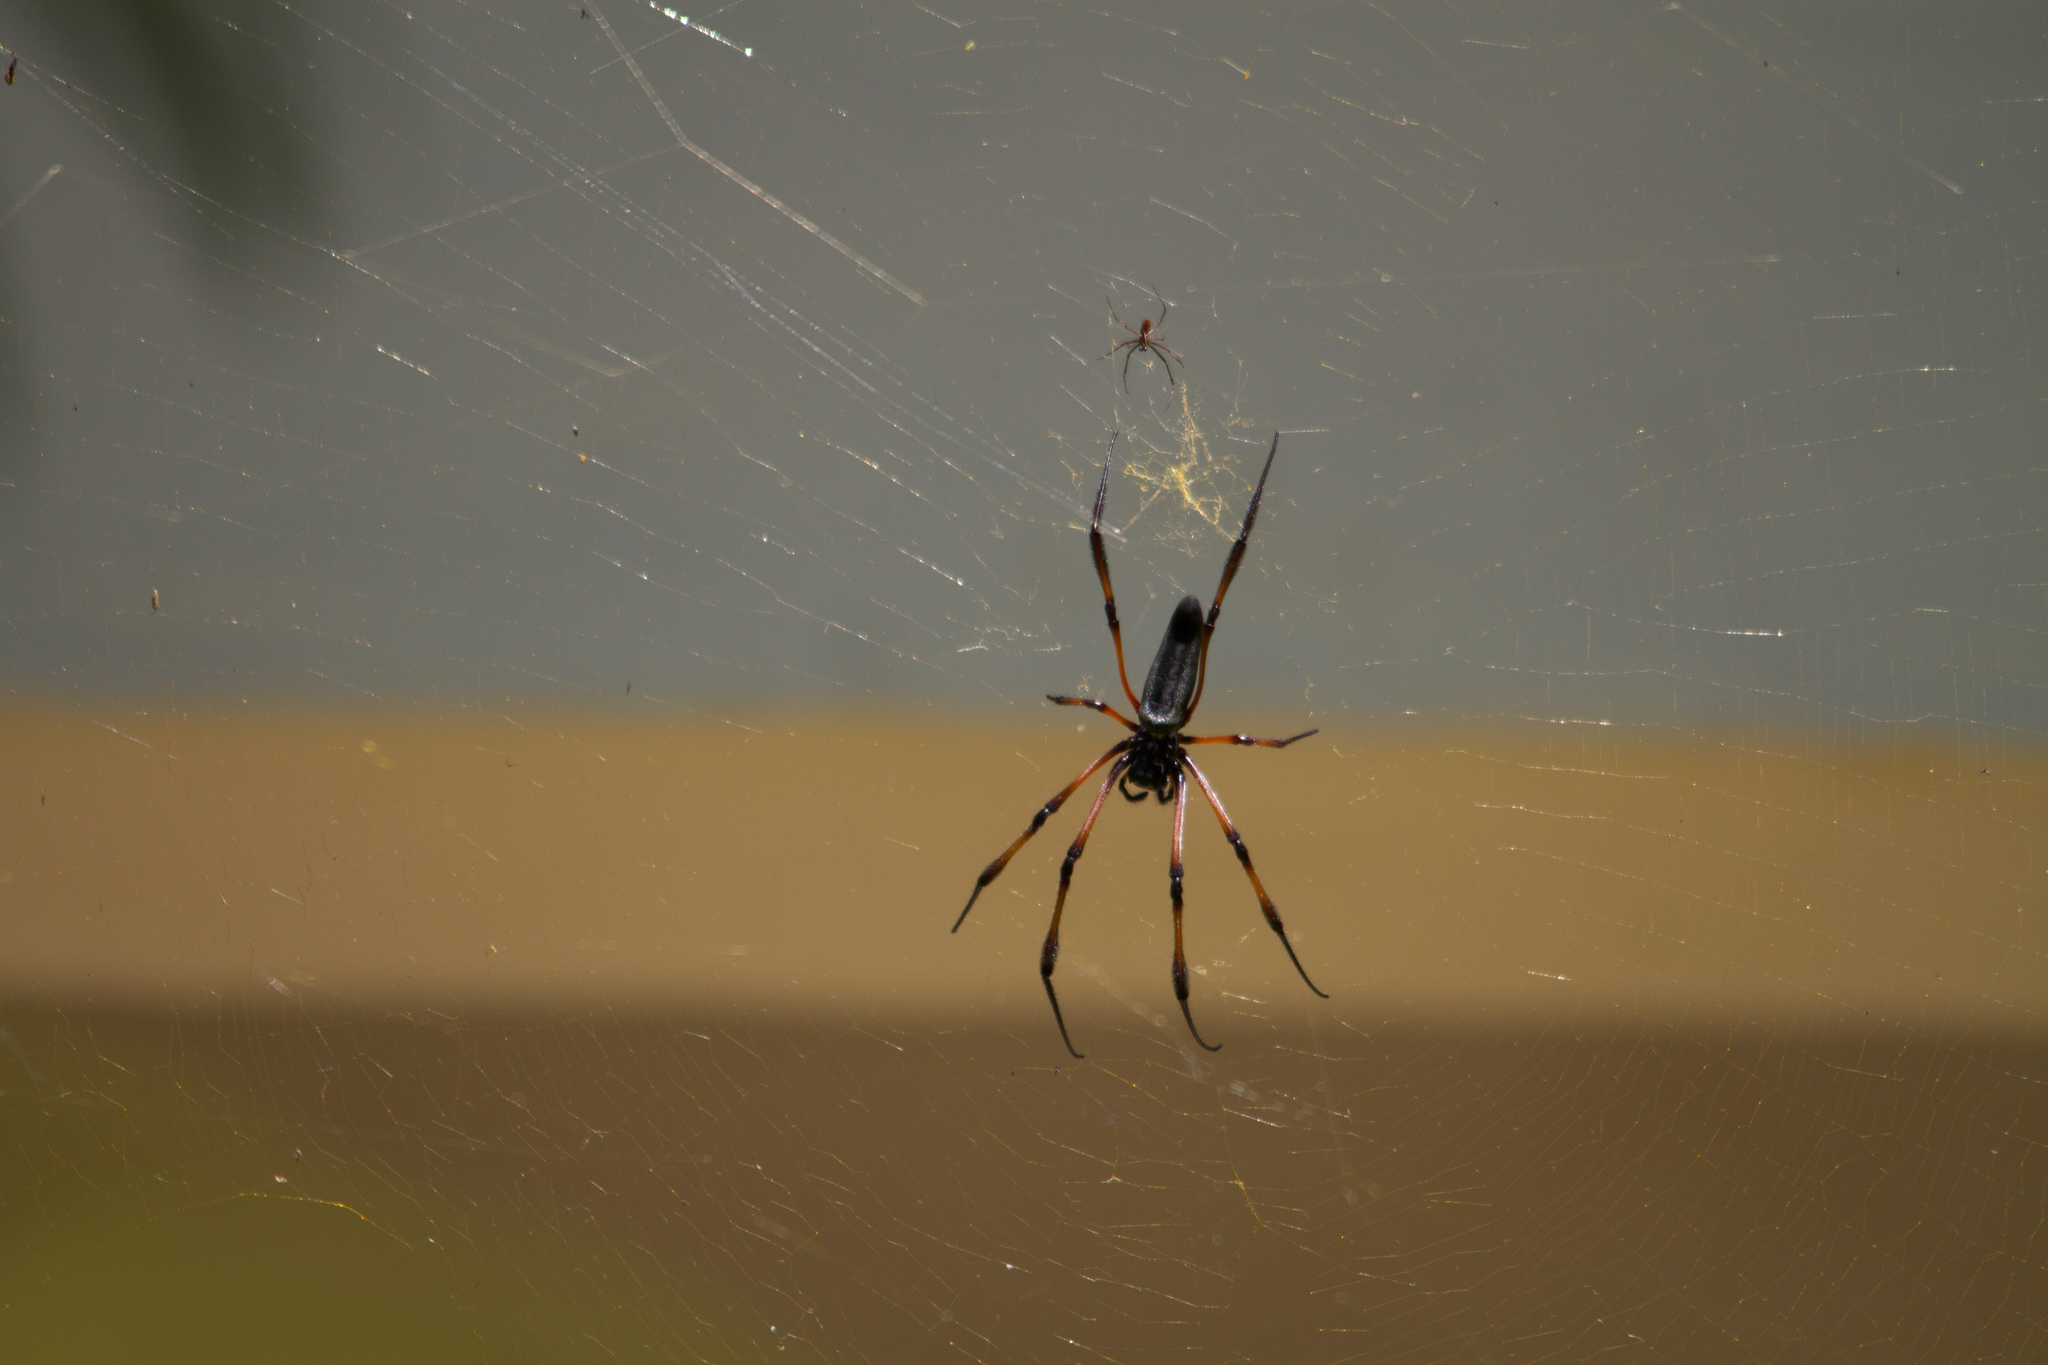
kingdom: Animalia
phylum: Arthropoda
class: Arachnida
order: Araneae
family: Araneidae
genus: Trichonephila
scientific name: Trichonephila inaurata
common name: Red-legged golden orb weaver
